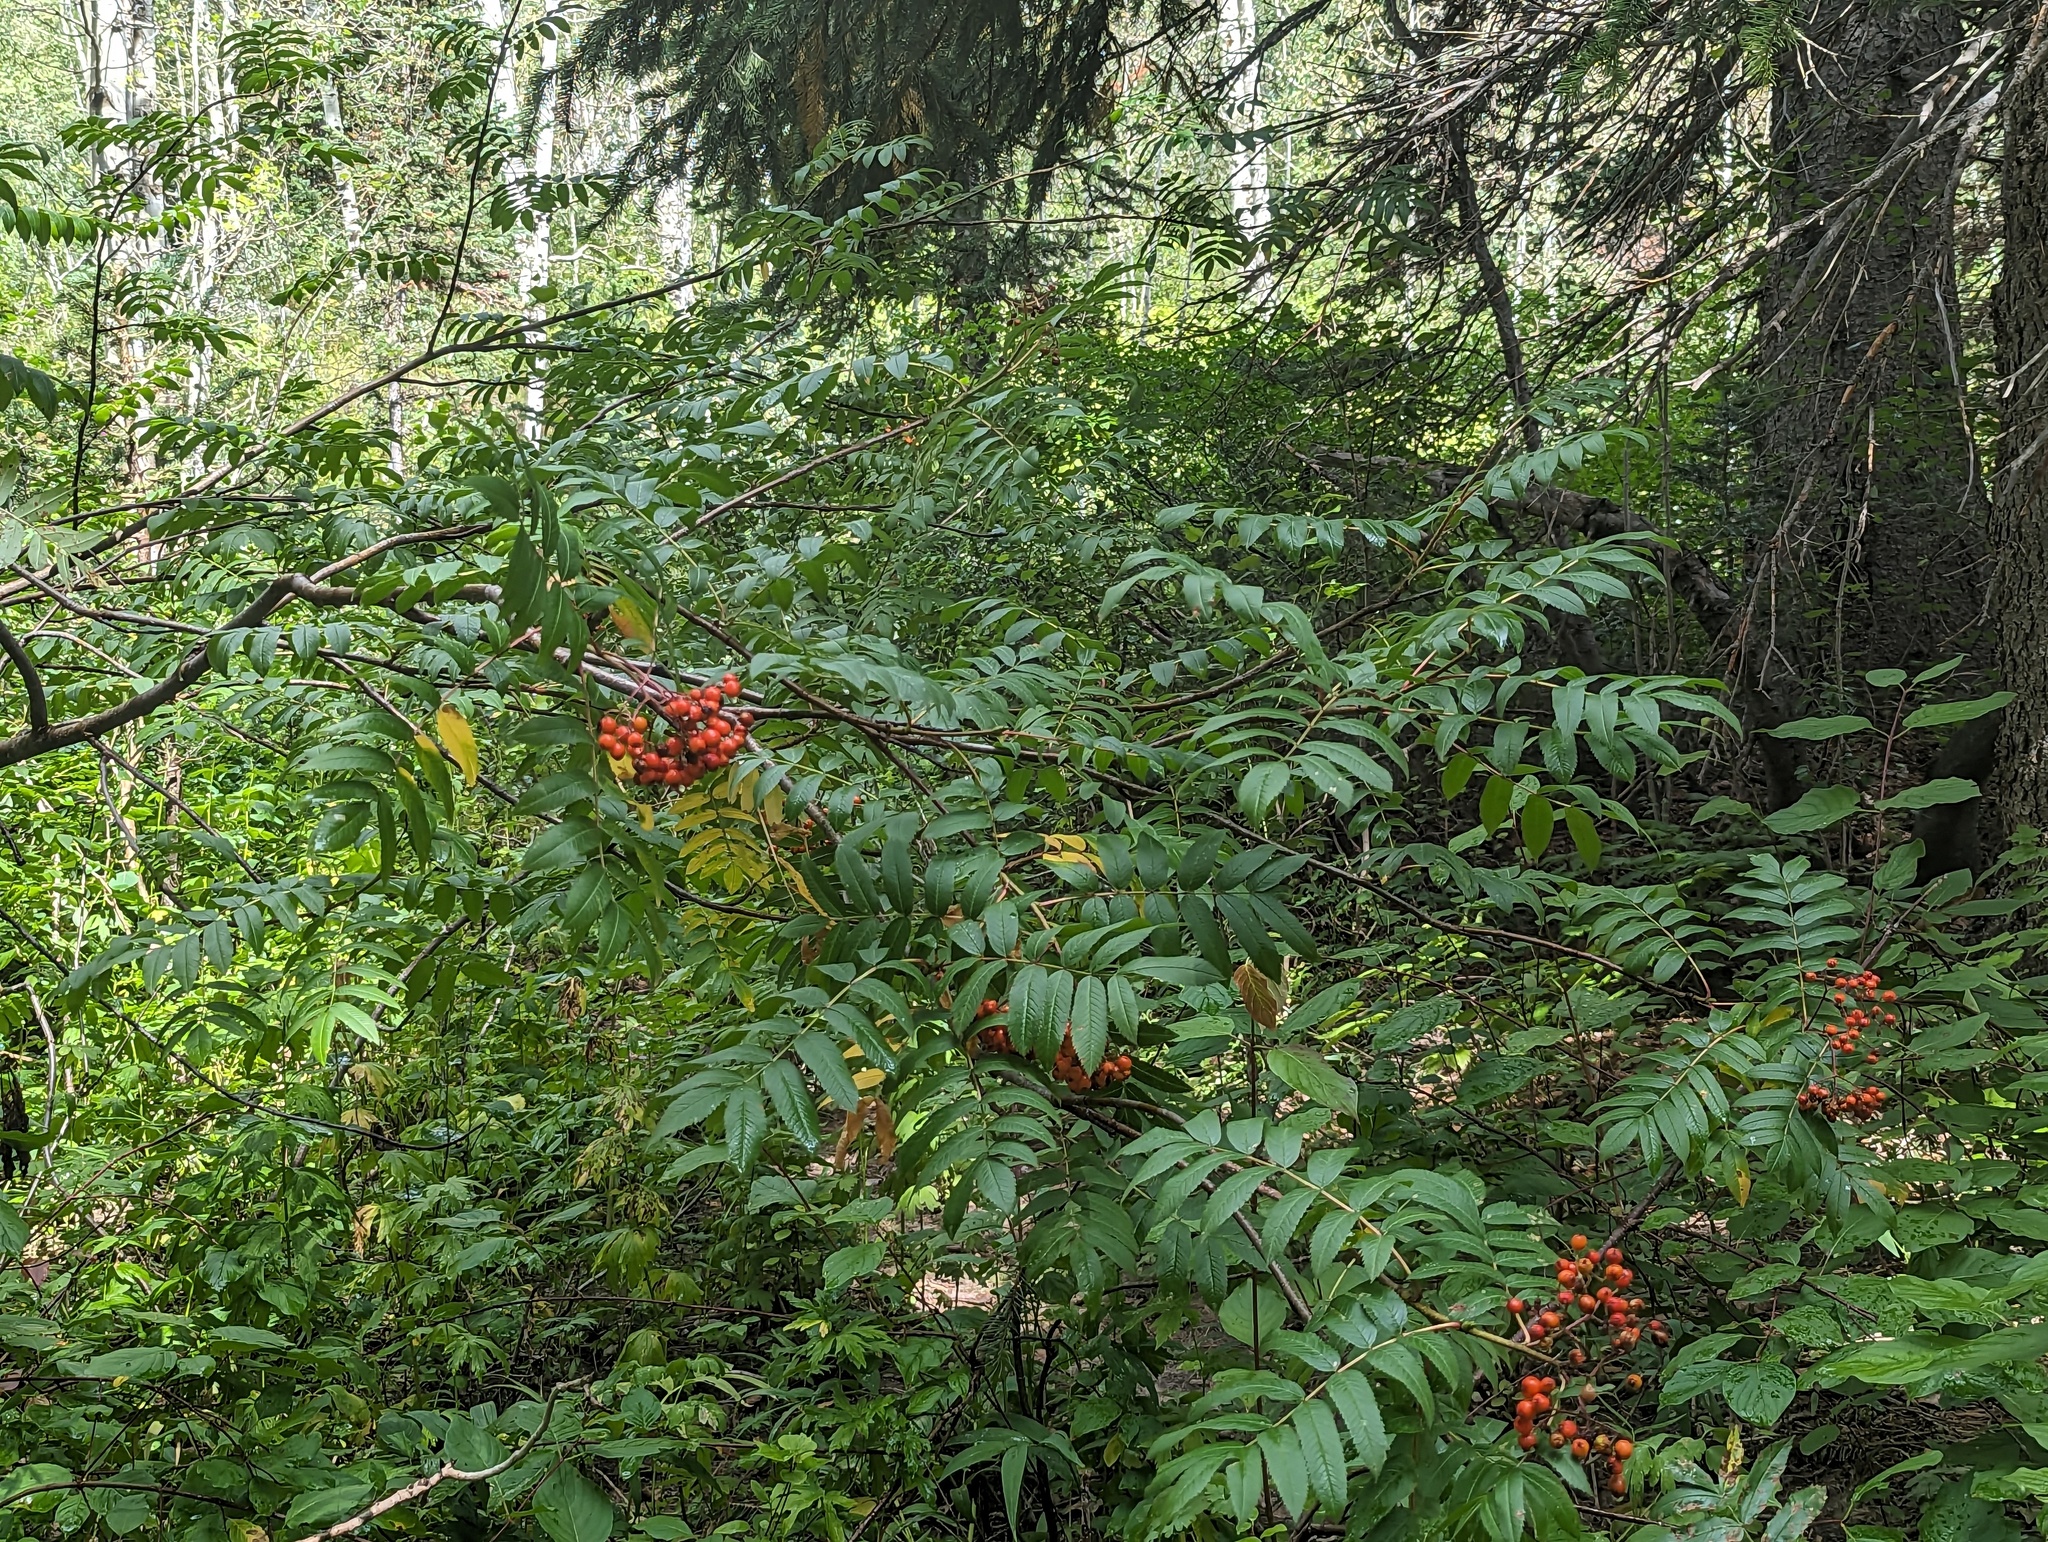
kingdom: Plantae
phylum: Tracheophyta
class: Magnoliopsida
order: Rosales
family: Rosaceae
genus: Sorbus
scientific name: Sorbus scopulina
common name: Greene's mountain-ash
